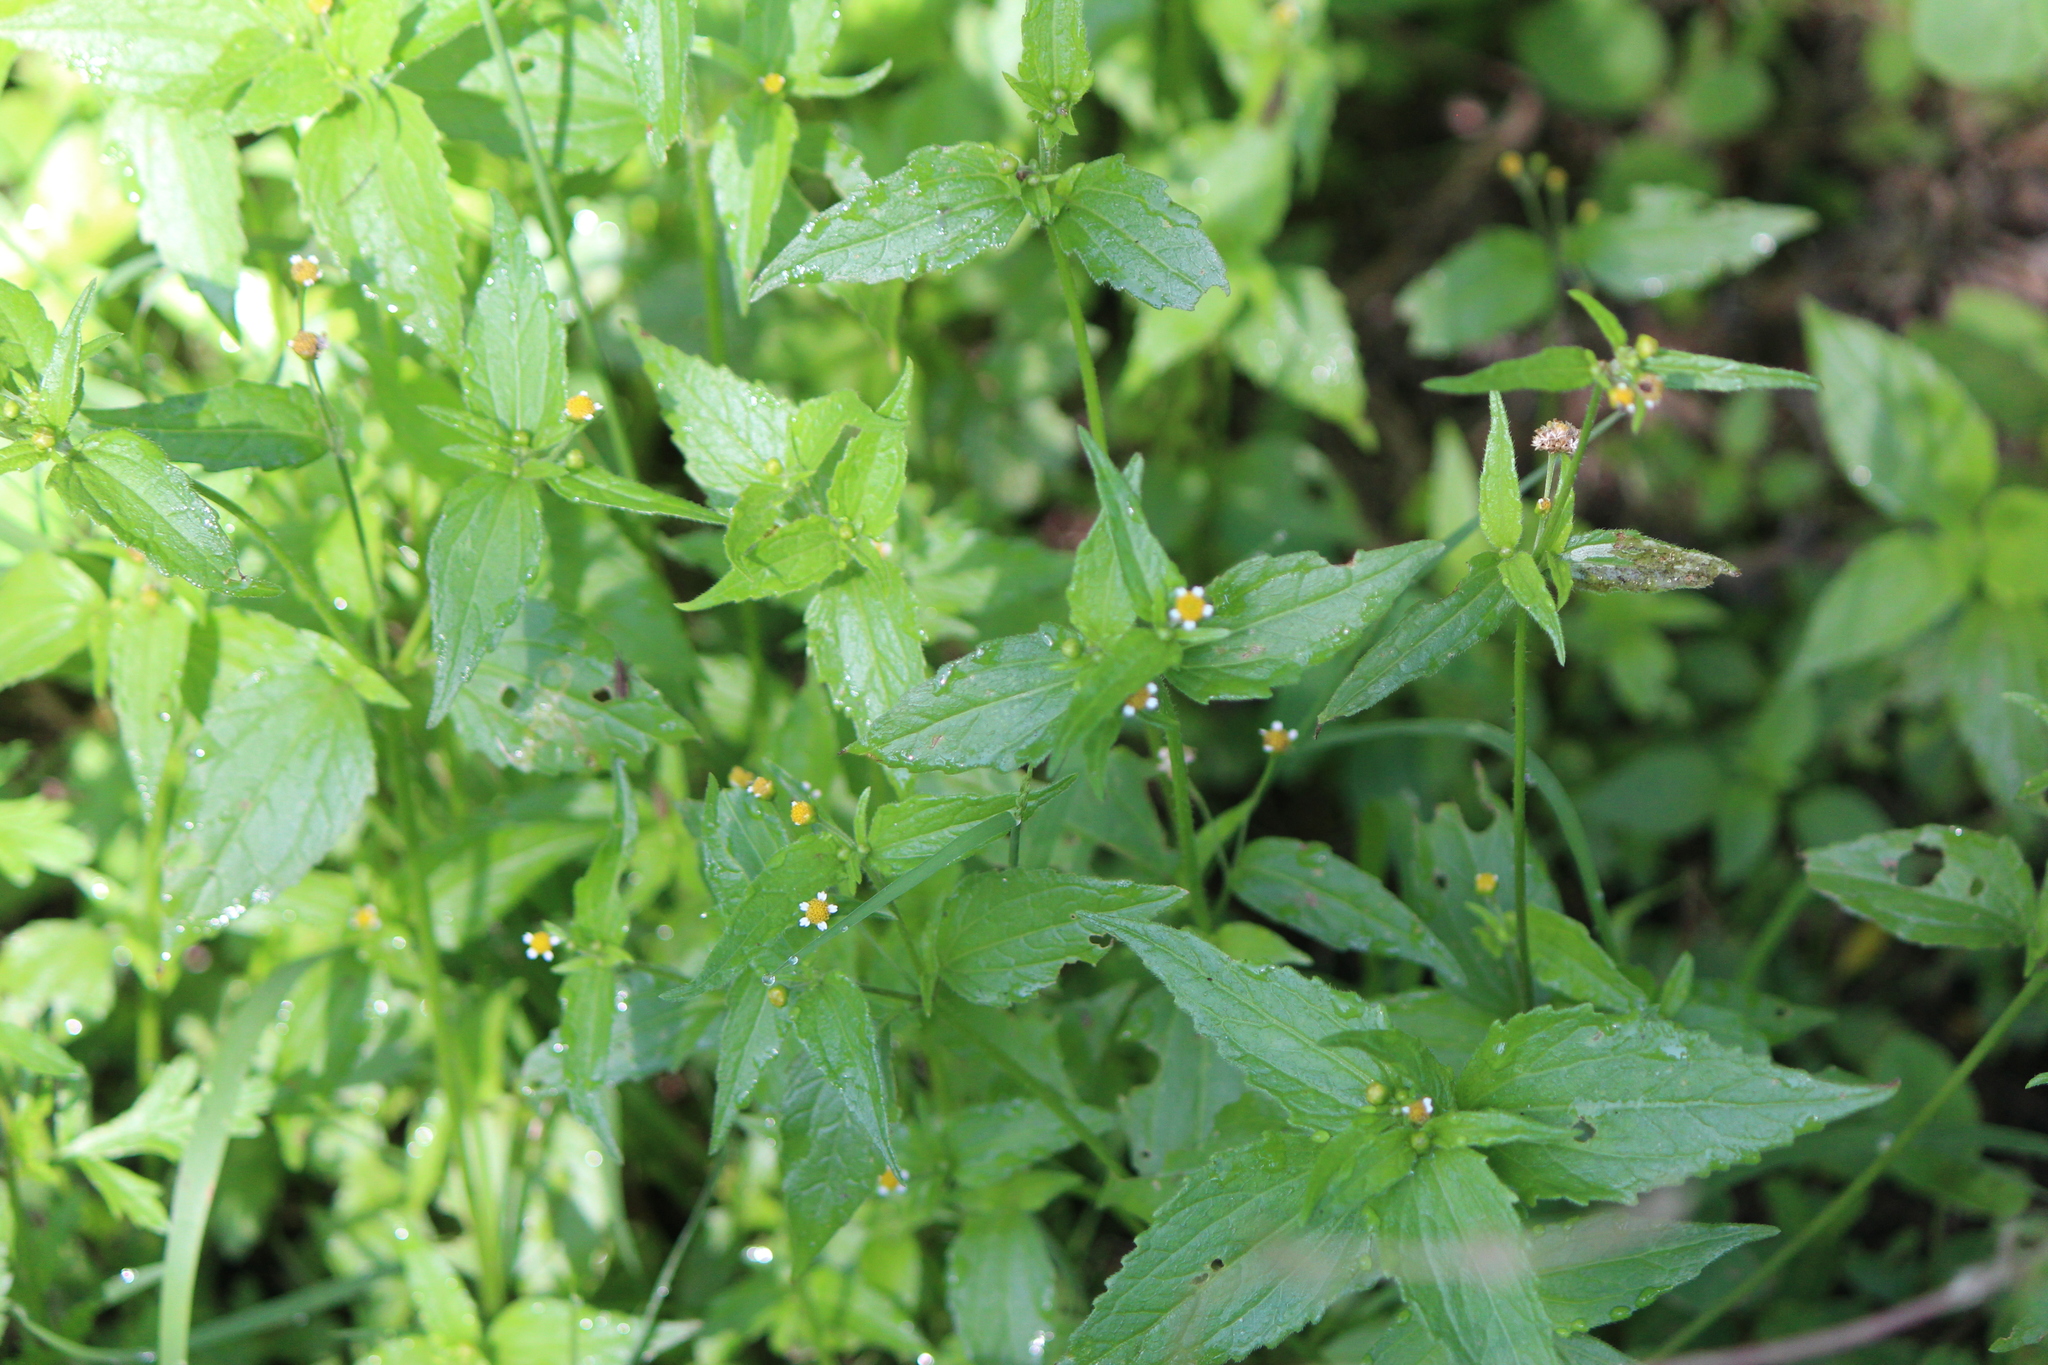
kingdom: Plantae
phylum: Tracheophyta
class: Magnoliopsida
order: Asterales
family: Asteraceae
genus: Galinsoga
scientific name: Galinsoga parviflora
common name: Gallant soldier
